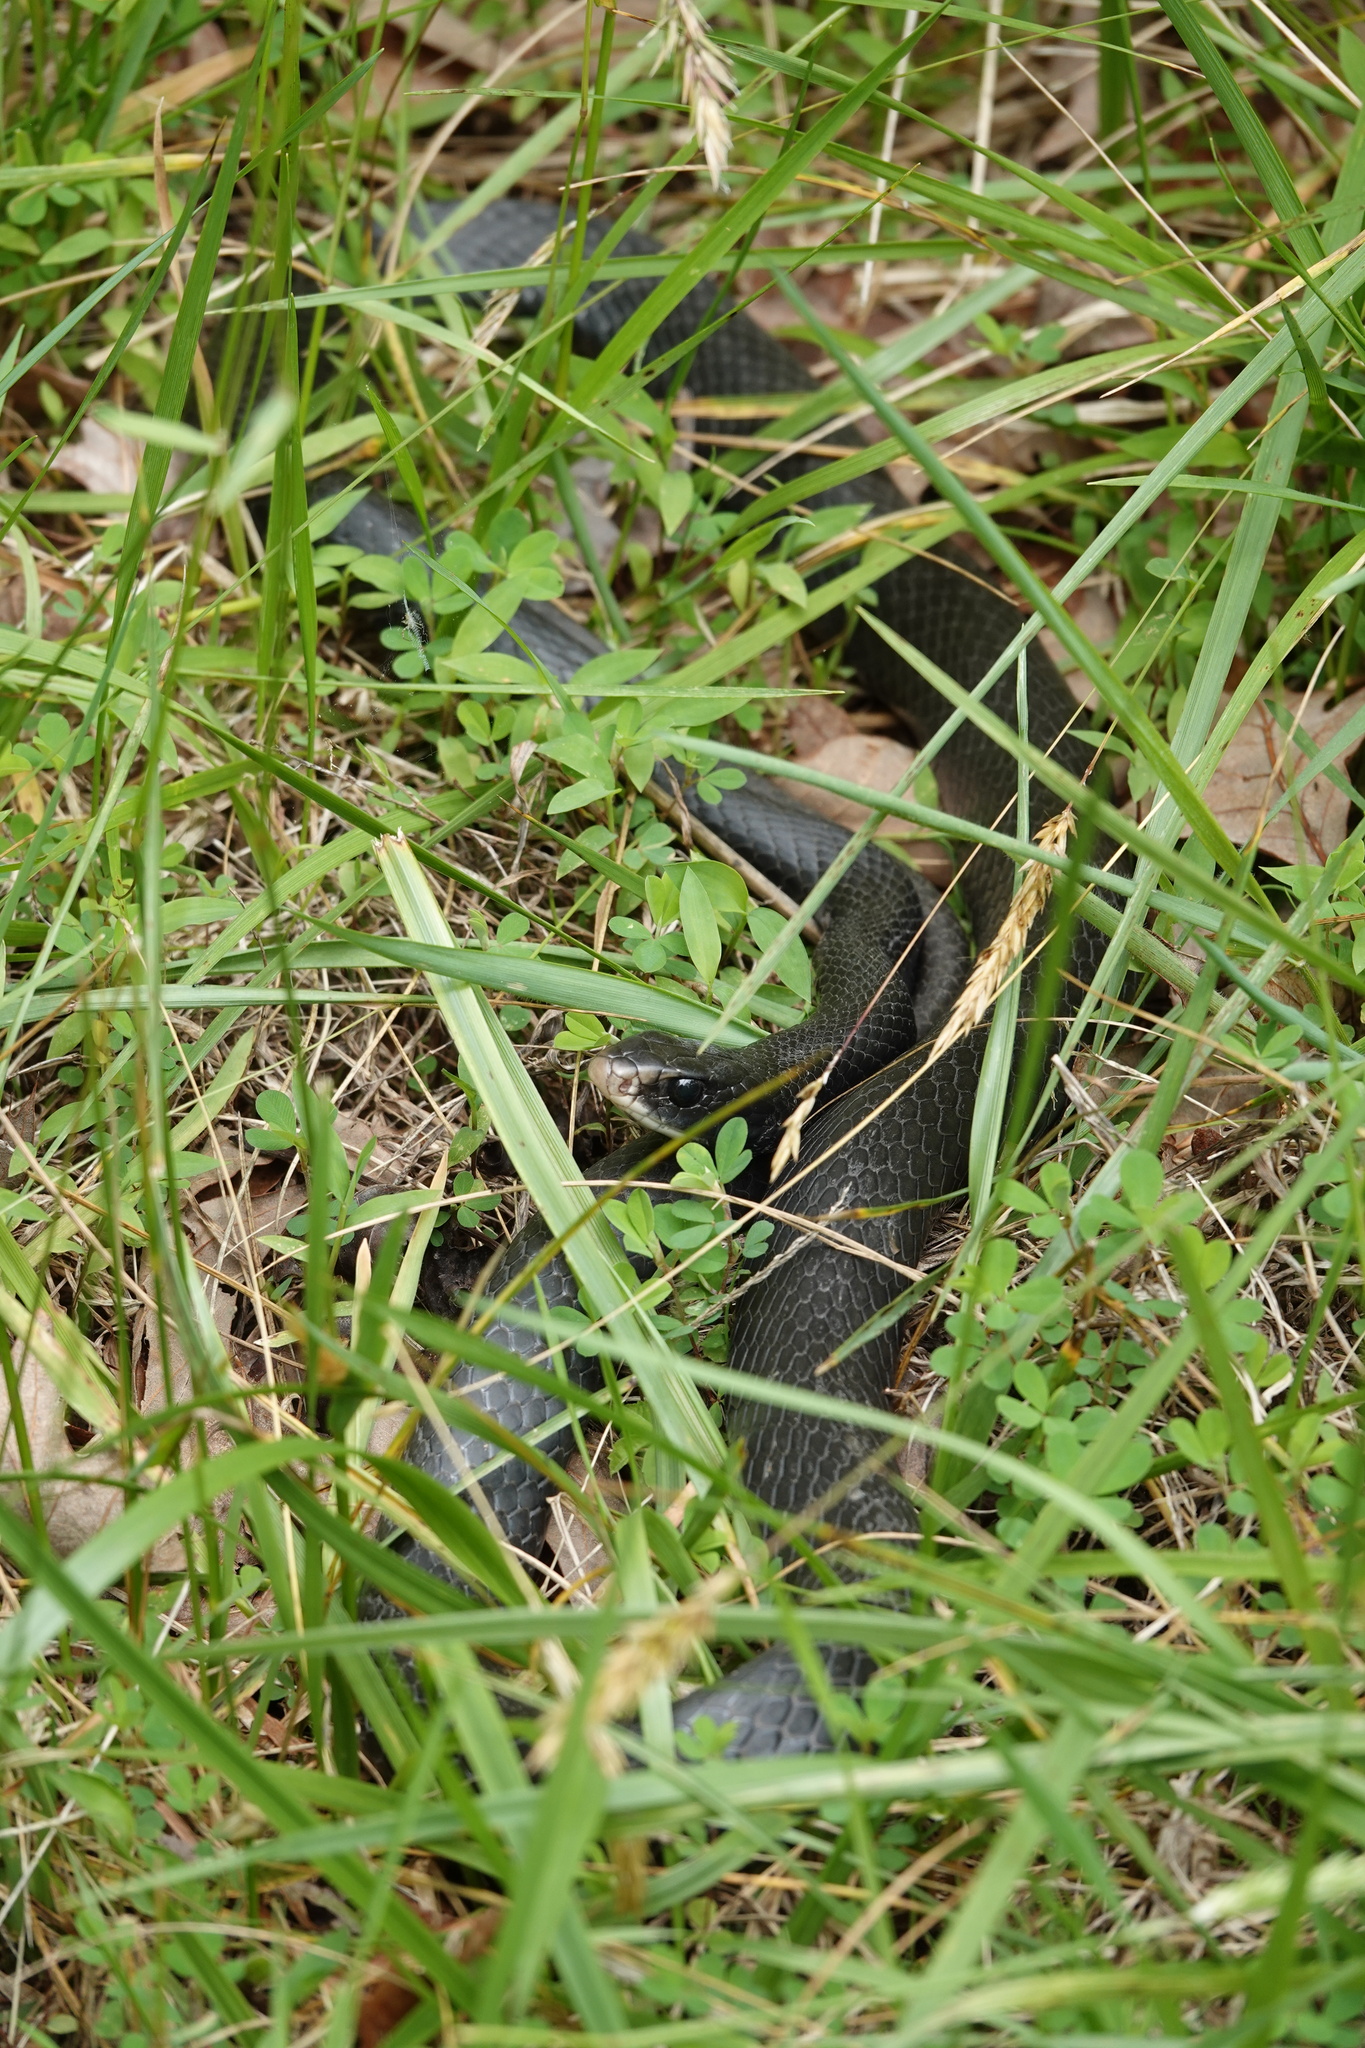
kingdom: Animalia
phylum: Chordata
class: Squamata
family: Colubridae
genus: Coluber
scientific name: Coluber constrictor
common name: Eastern racer
